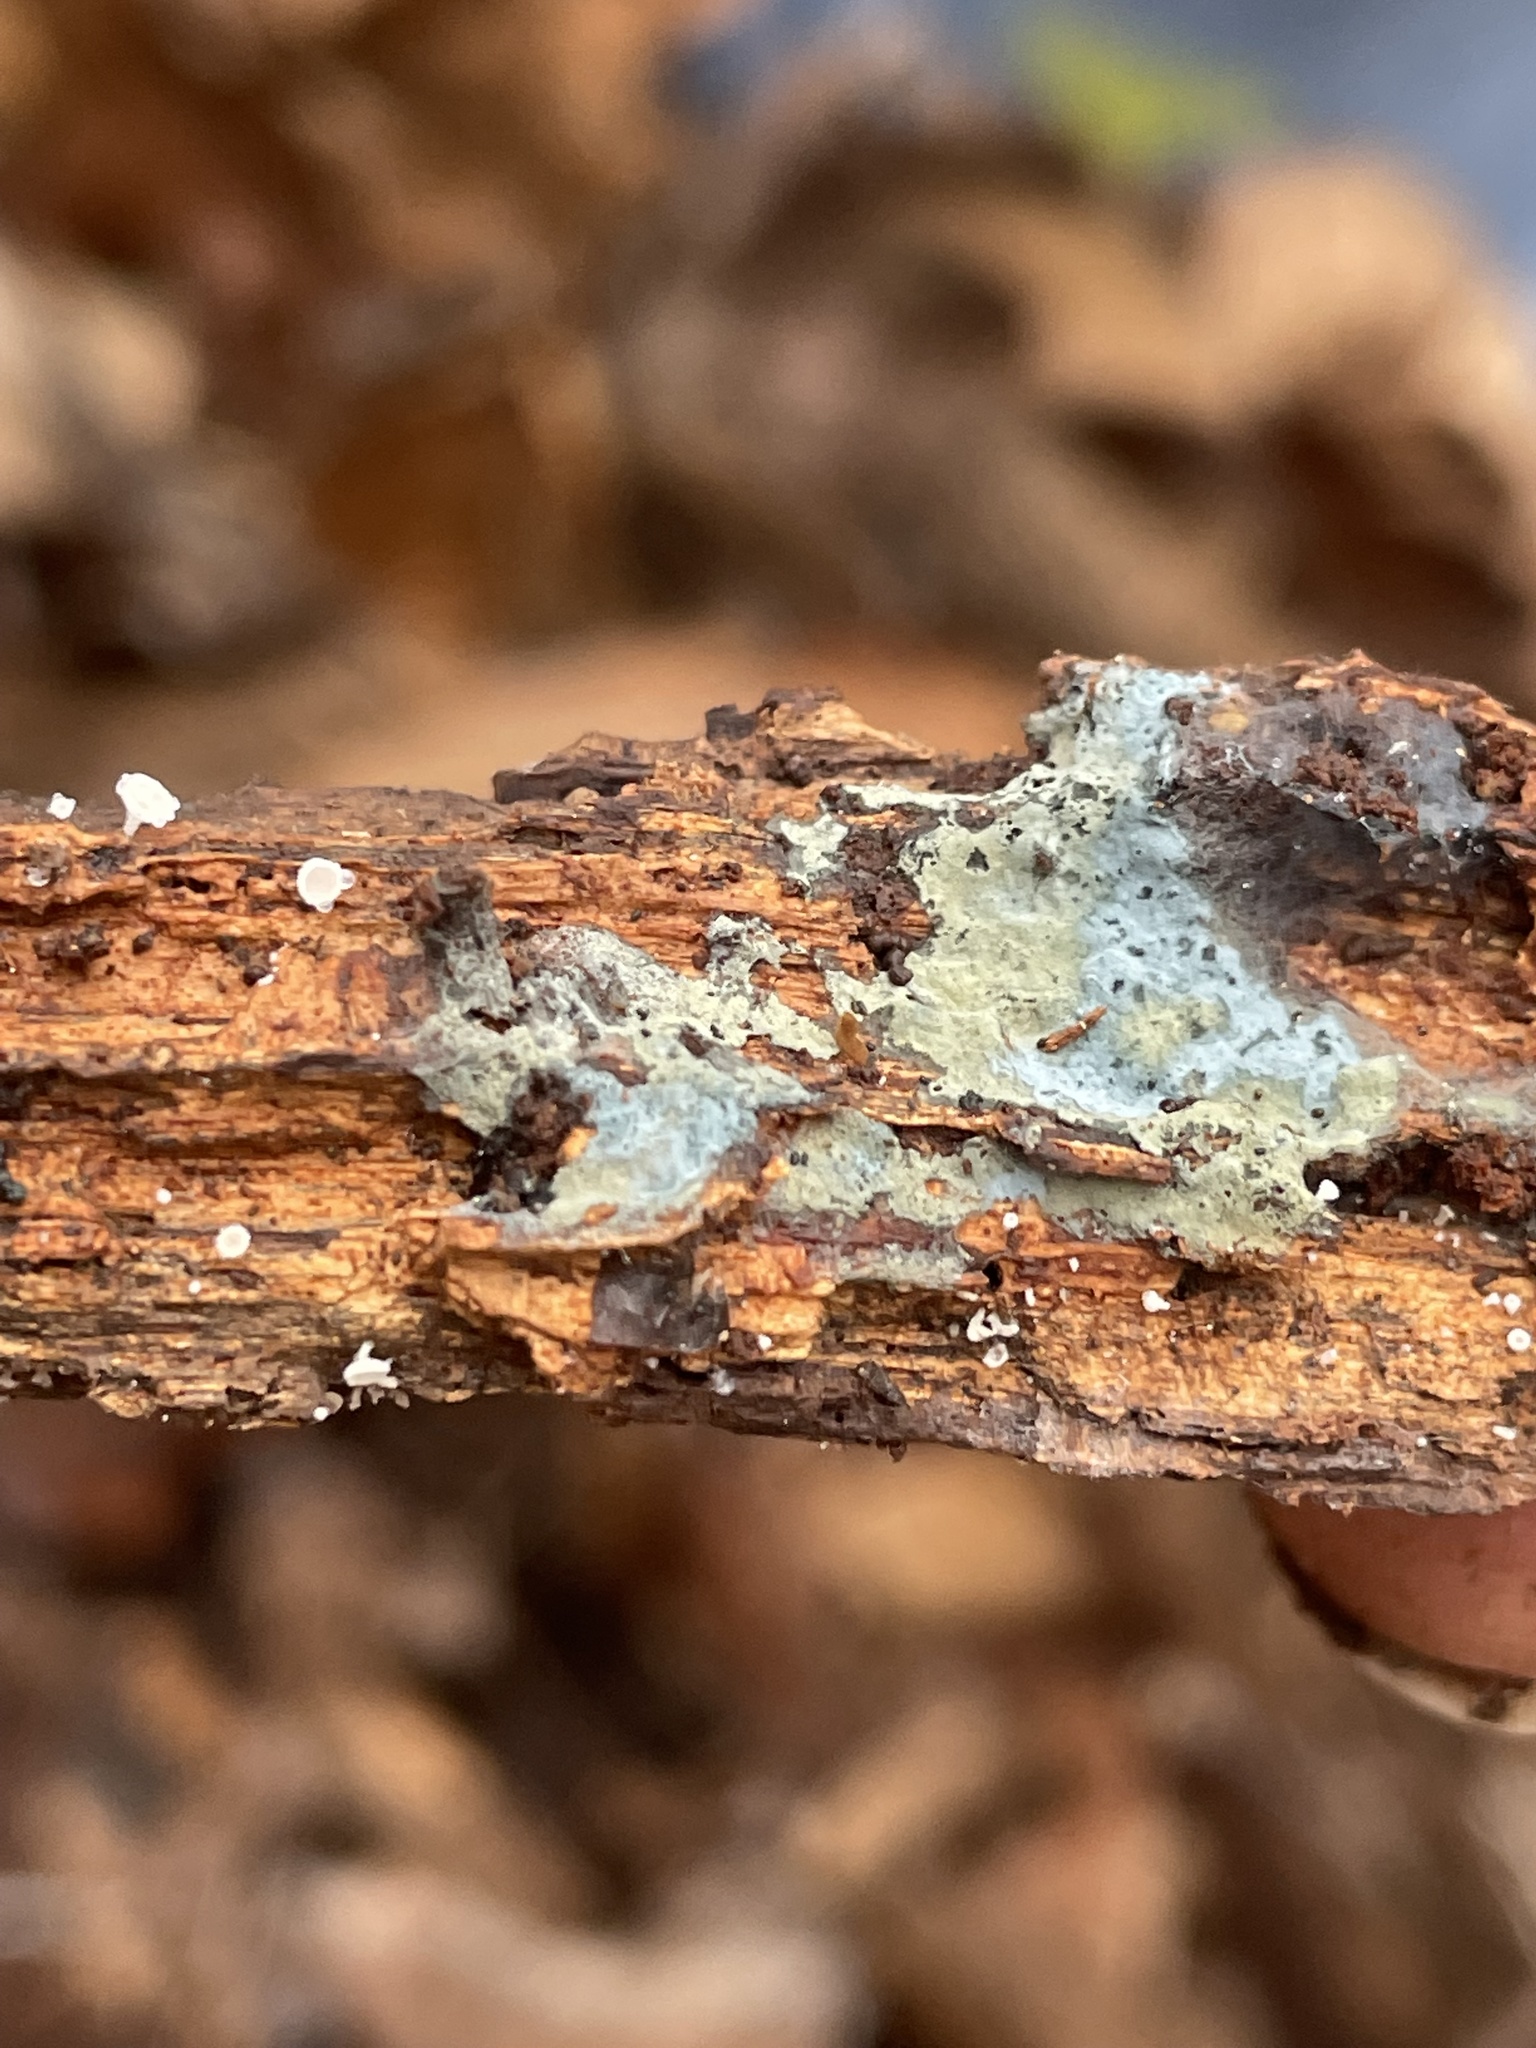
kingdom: Fungi
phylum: Basidiomycota
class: Agaricomycetes
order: Atheliales
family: Atheliaceae
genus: Byssocorticium
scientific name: Byssocorticium atrovirens
